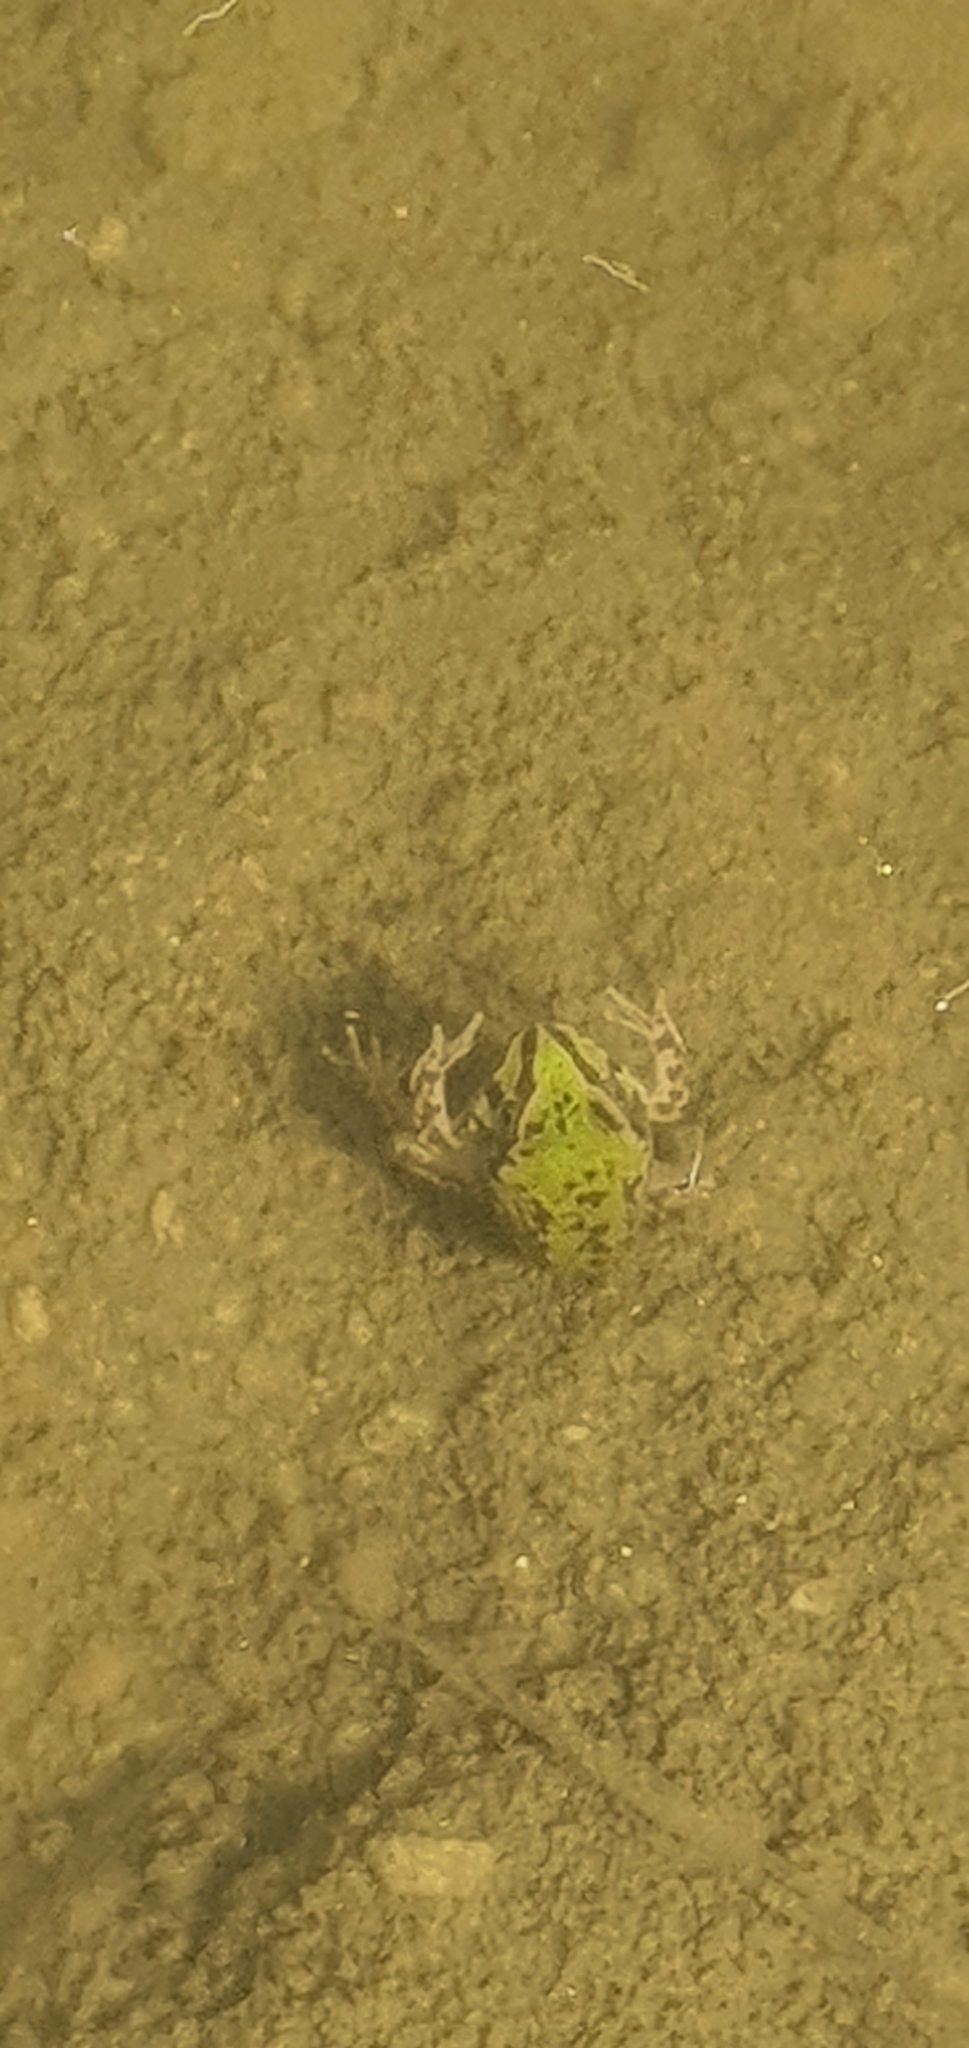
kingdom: Animalia
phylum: Chordata
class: Amphibia
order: Anura
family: Pelodryadidae
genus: Ranoidea
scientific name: Ranoidea novaehollandiae
